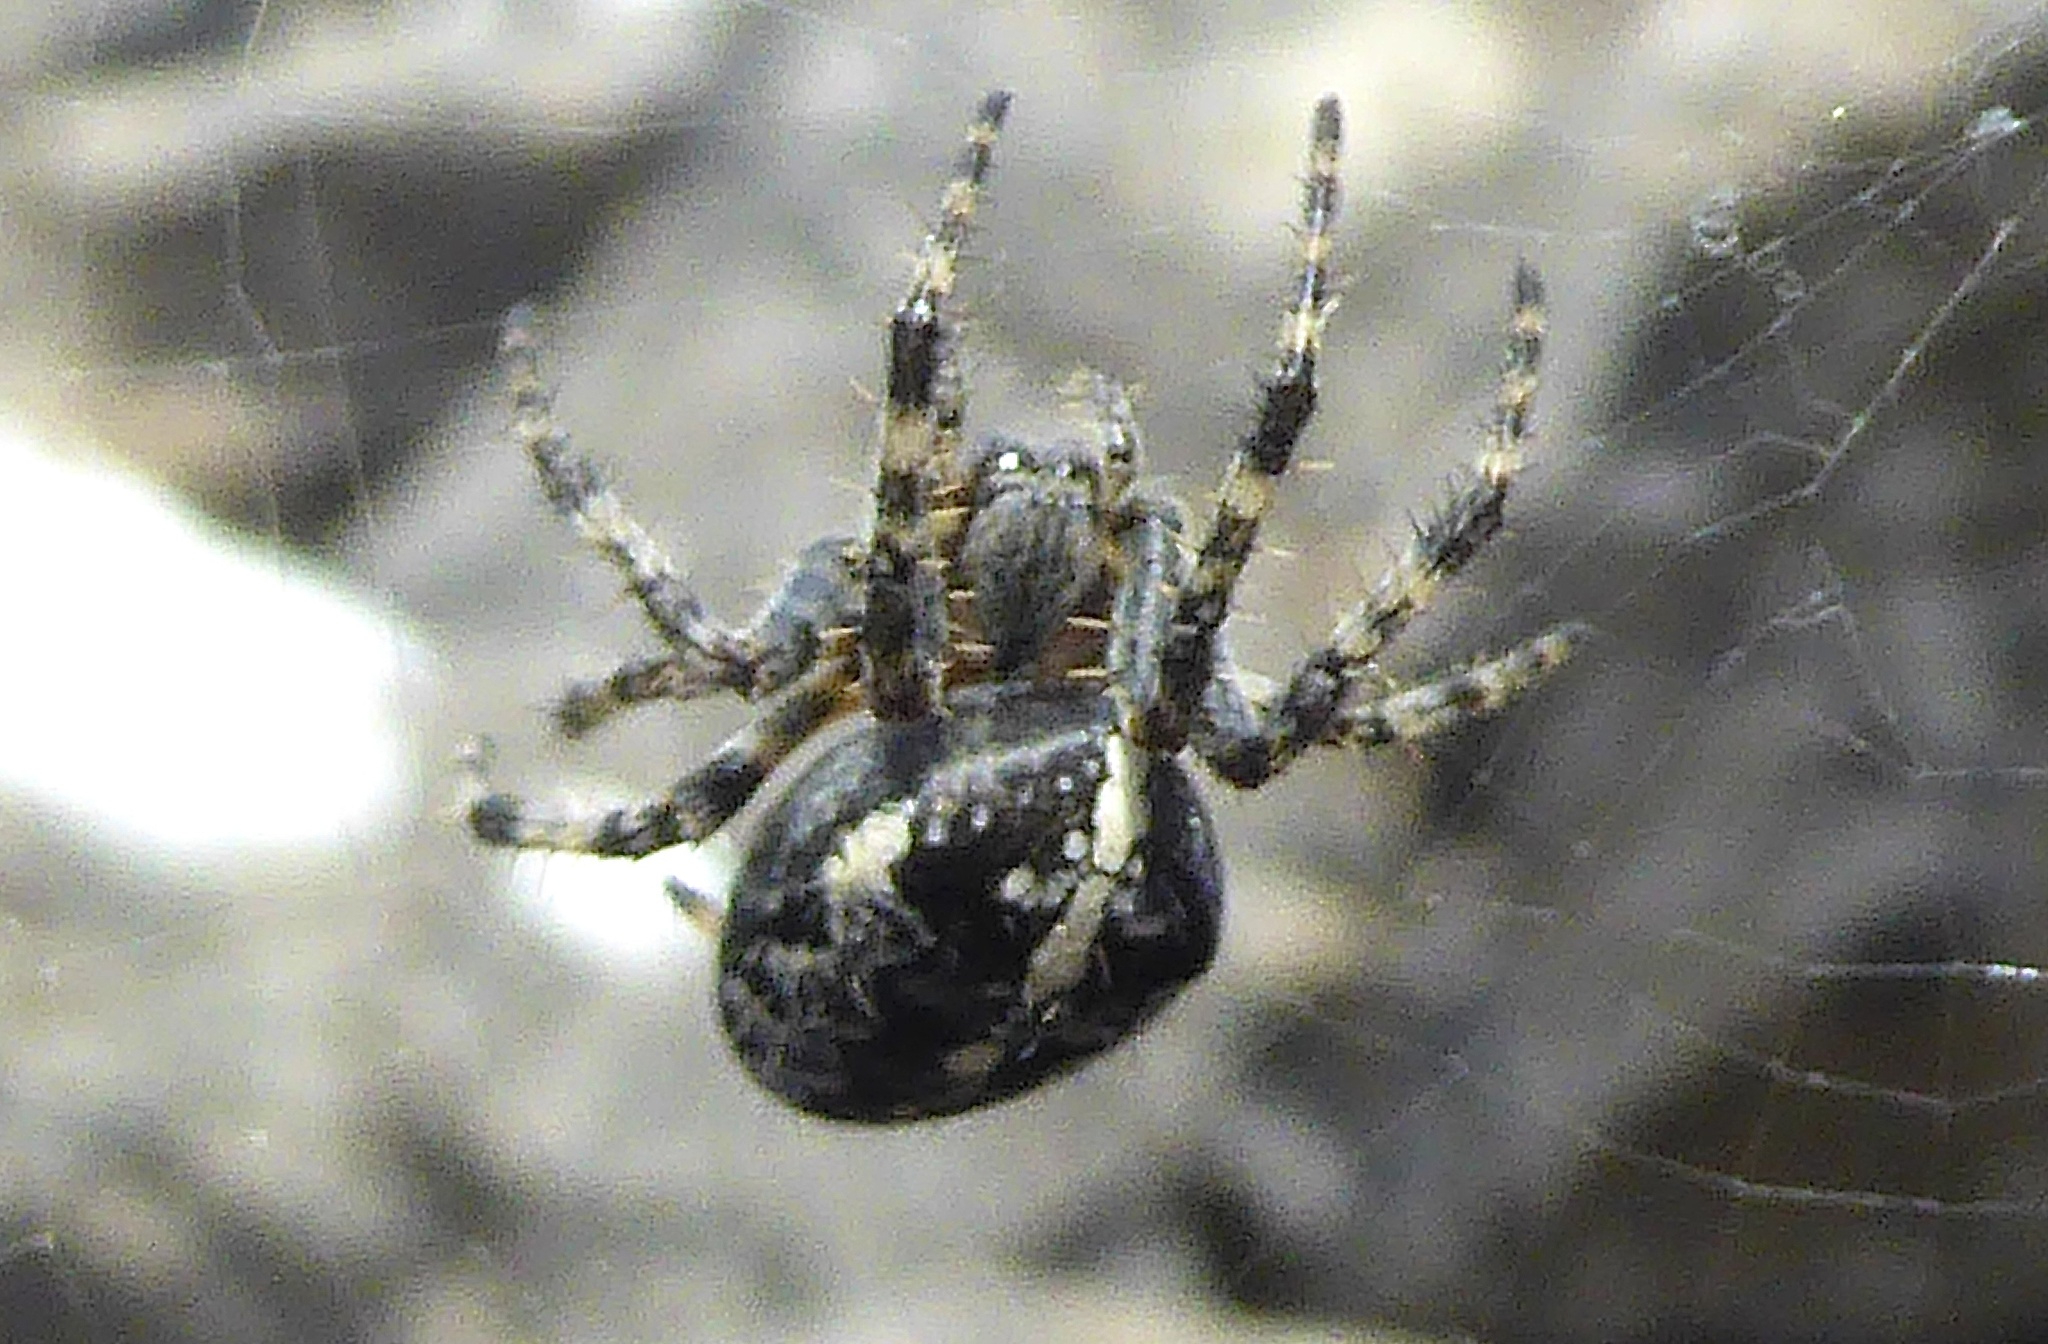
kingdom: Animalia
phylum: Arthropoda
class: Arachnida
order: Araneae
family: Araneidae
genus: Araneus
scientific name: Araneus diadematus
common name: Cross orbweaver
